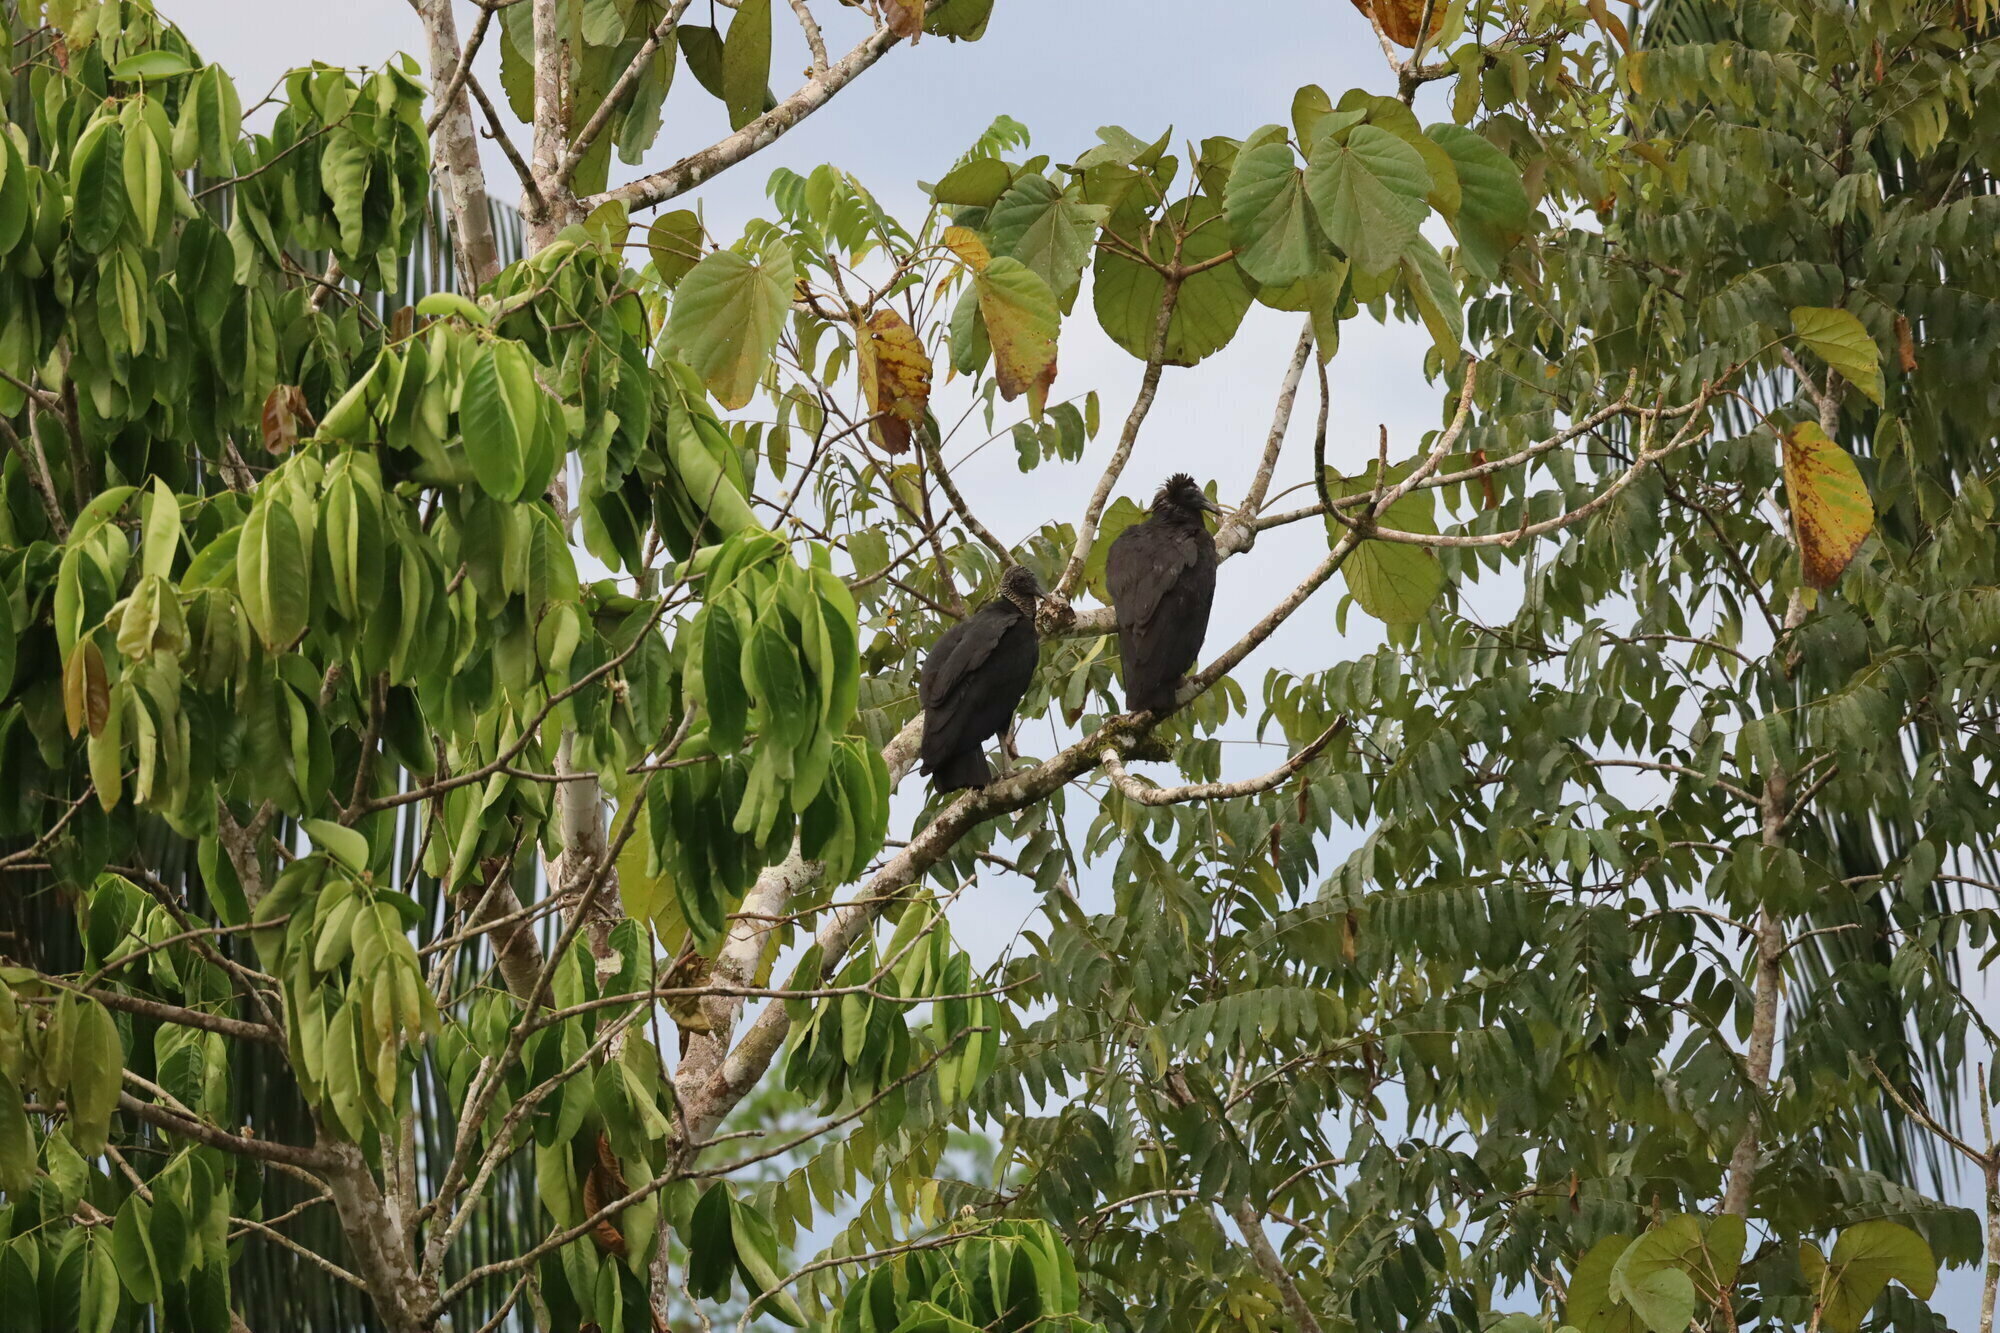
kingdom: Animalia
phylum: Chordata
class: Aves
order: Accipitriformes
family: Cathartidae
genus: Coragyps
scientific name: Coragyps atratus
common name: Black vulture
